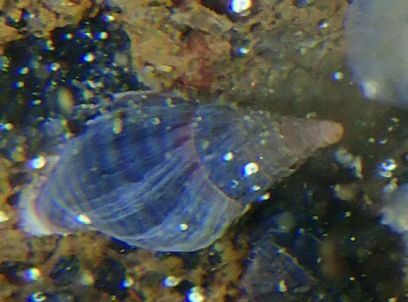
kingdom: Animalia
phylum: Mollusca
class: Gastropoda
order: Neogastropoda
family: Tudiclidae
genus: Buccinulum
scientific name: Buccinulum littorinoides
